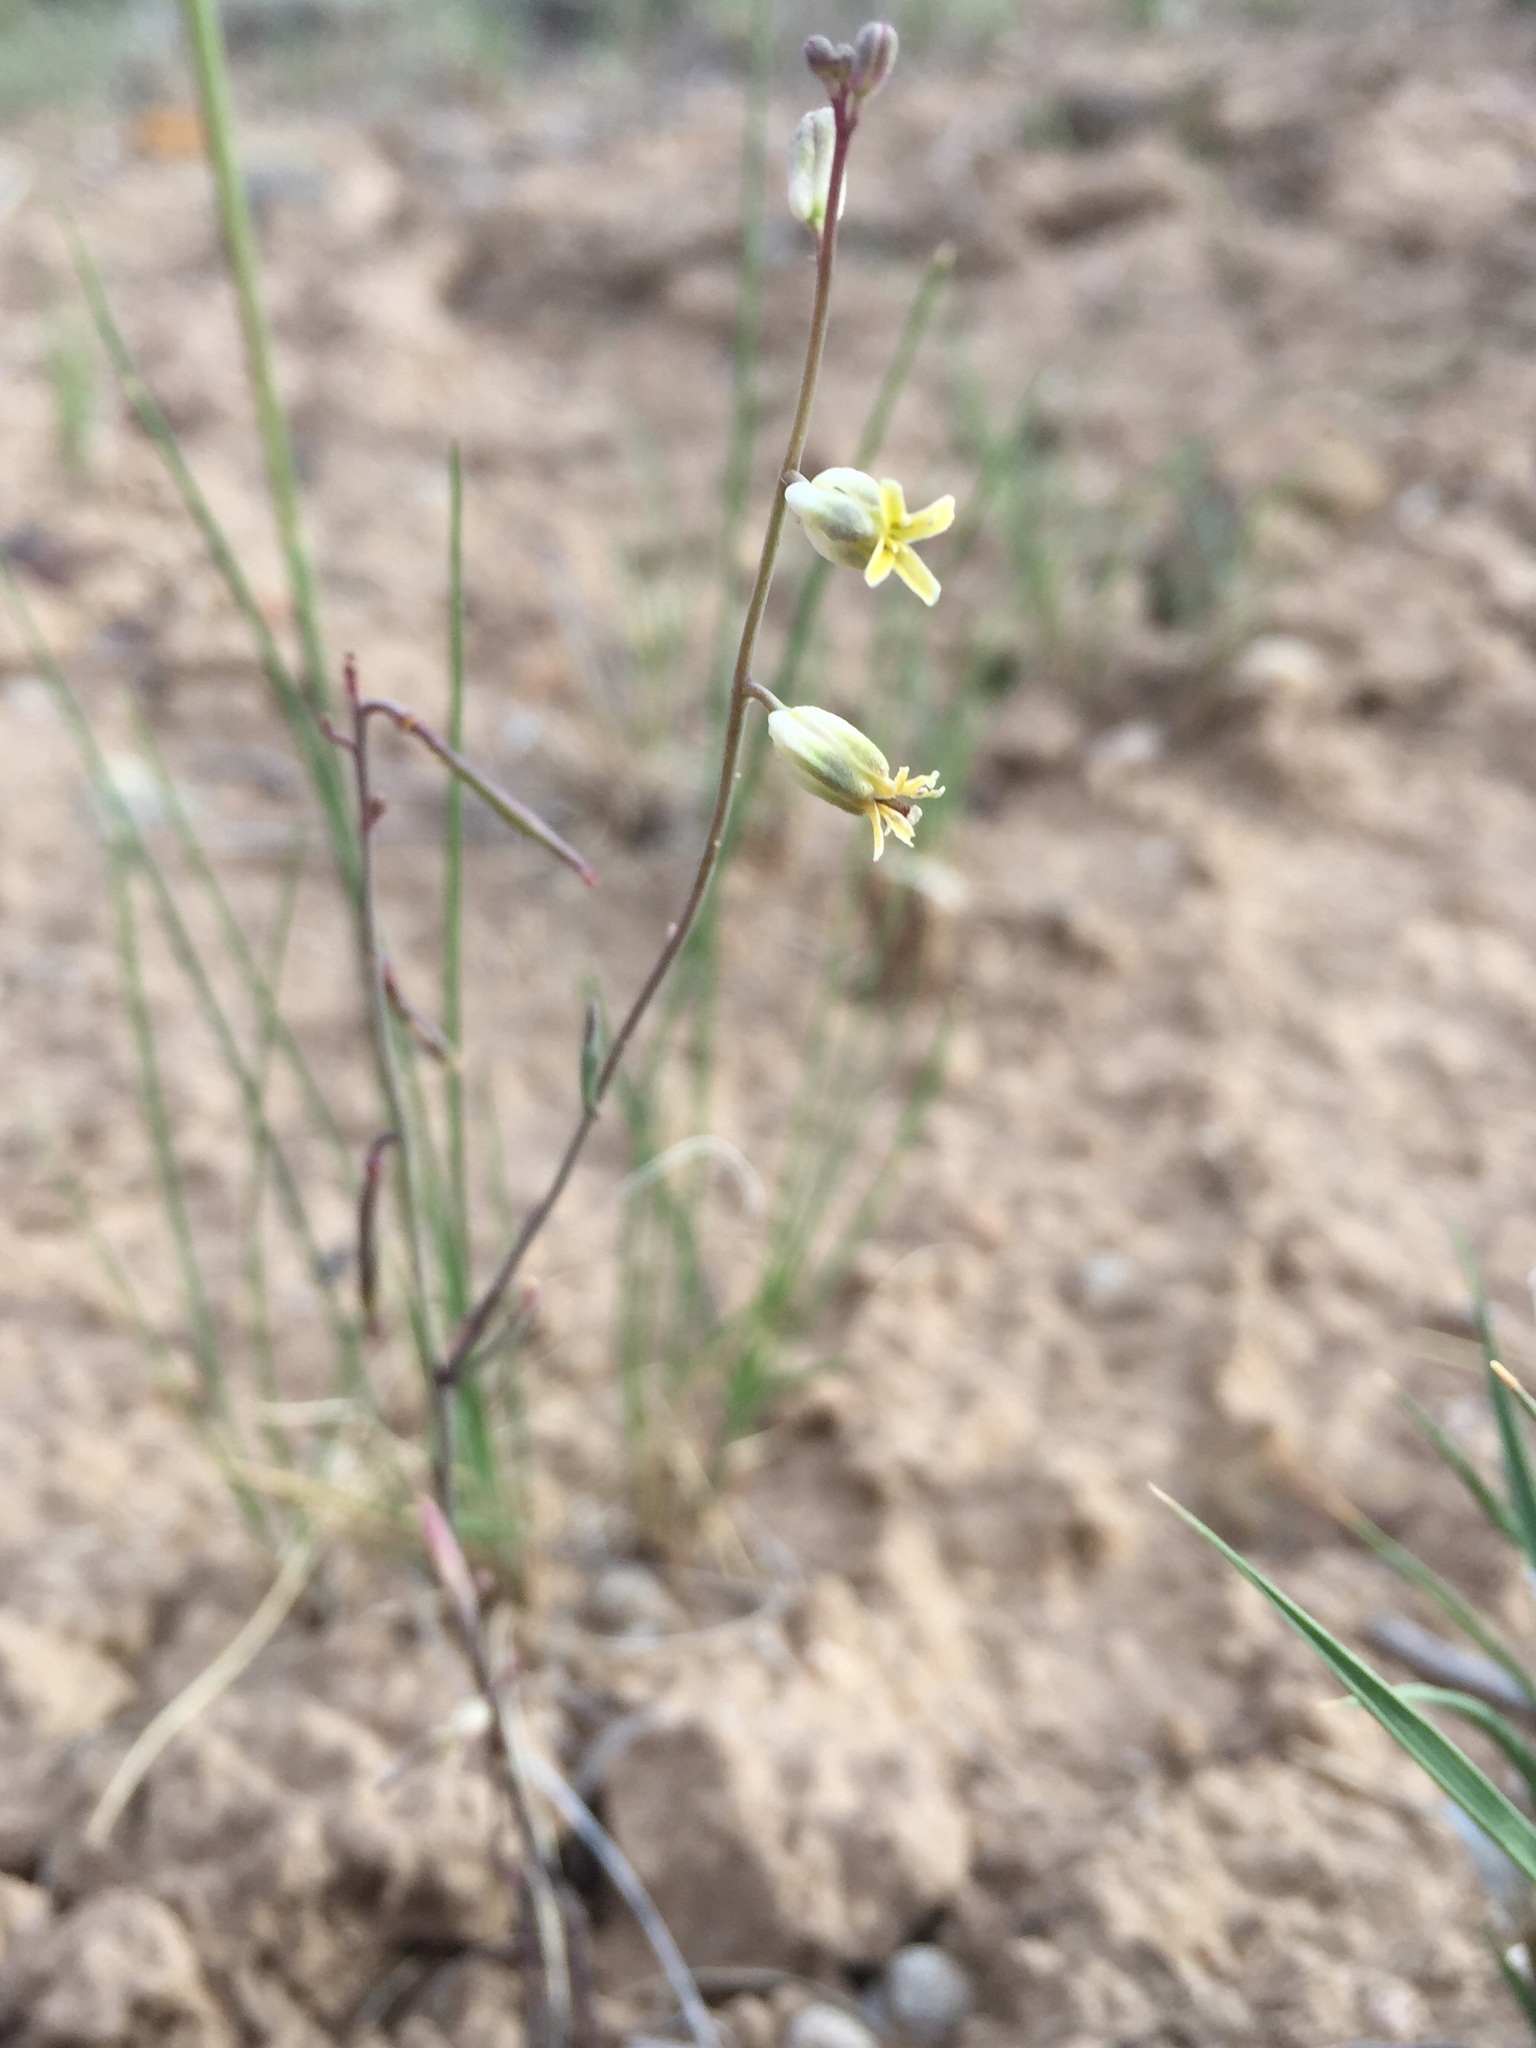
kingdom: Plantae
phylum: Tracheophyta
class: Magnoliopsida
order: Brassicales
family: Brassicaceae
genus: Streptanthus
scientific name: Streptanthus longirostris
